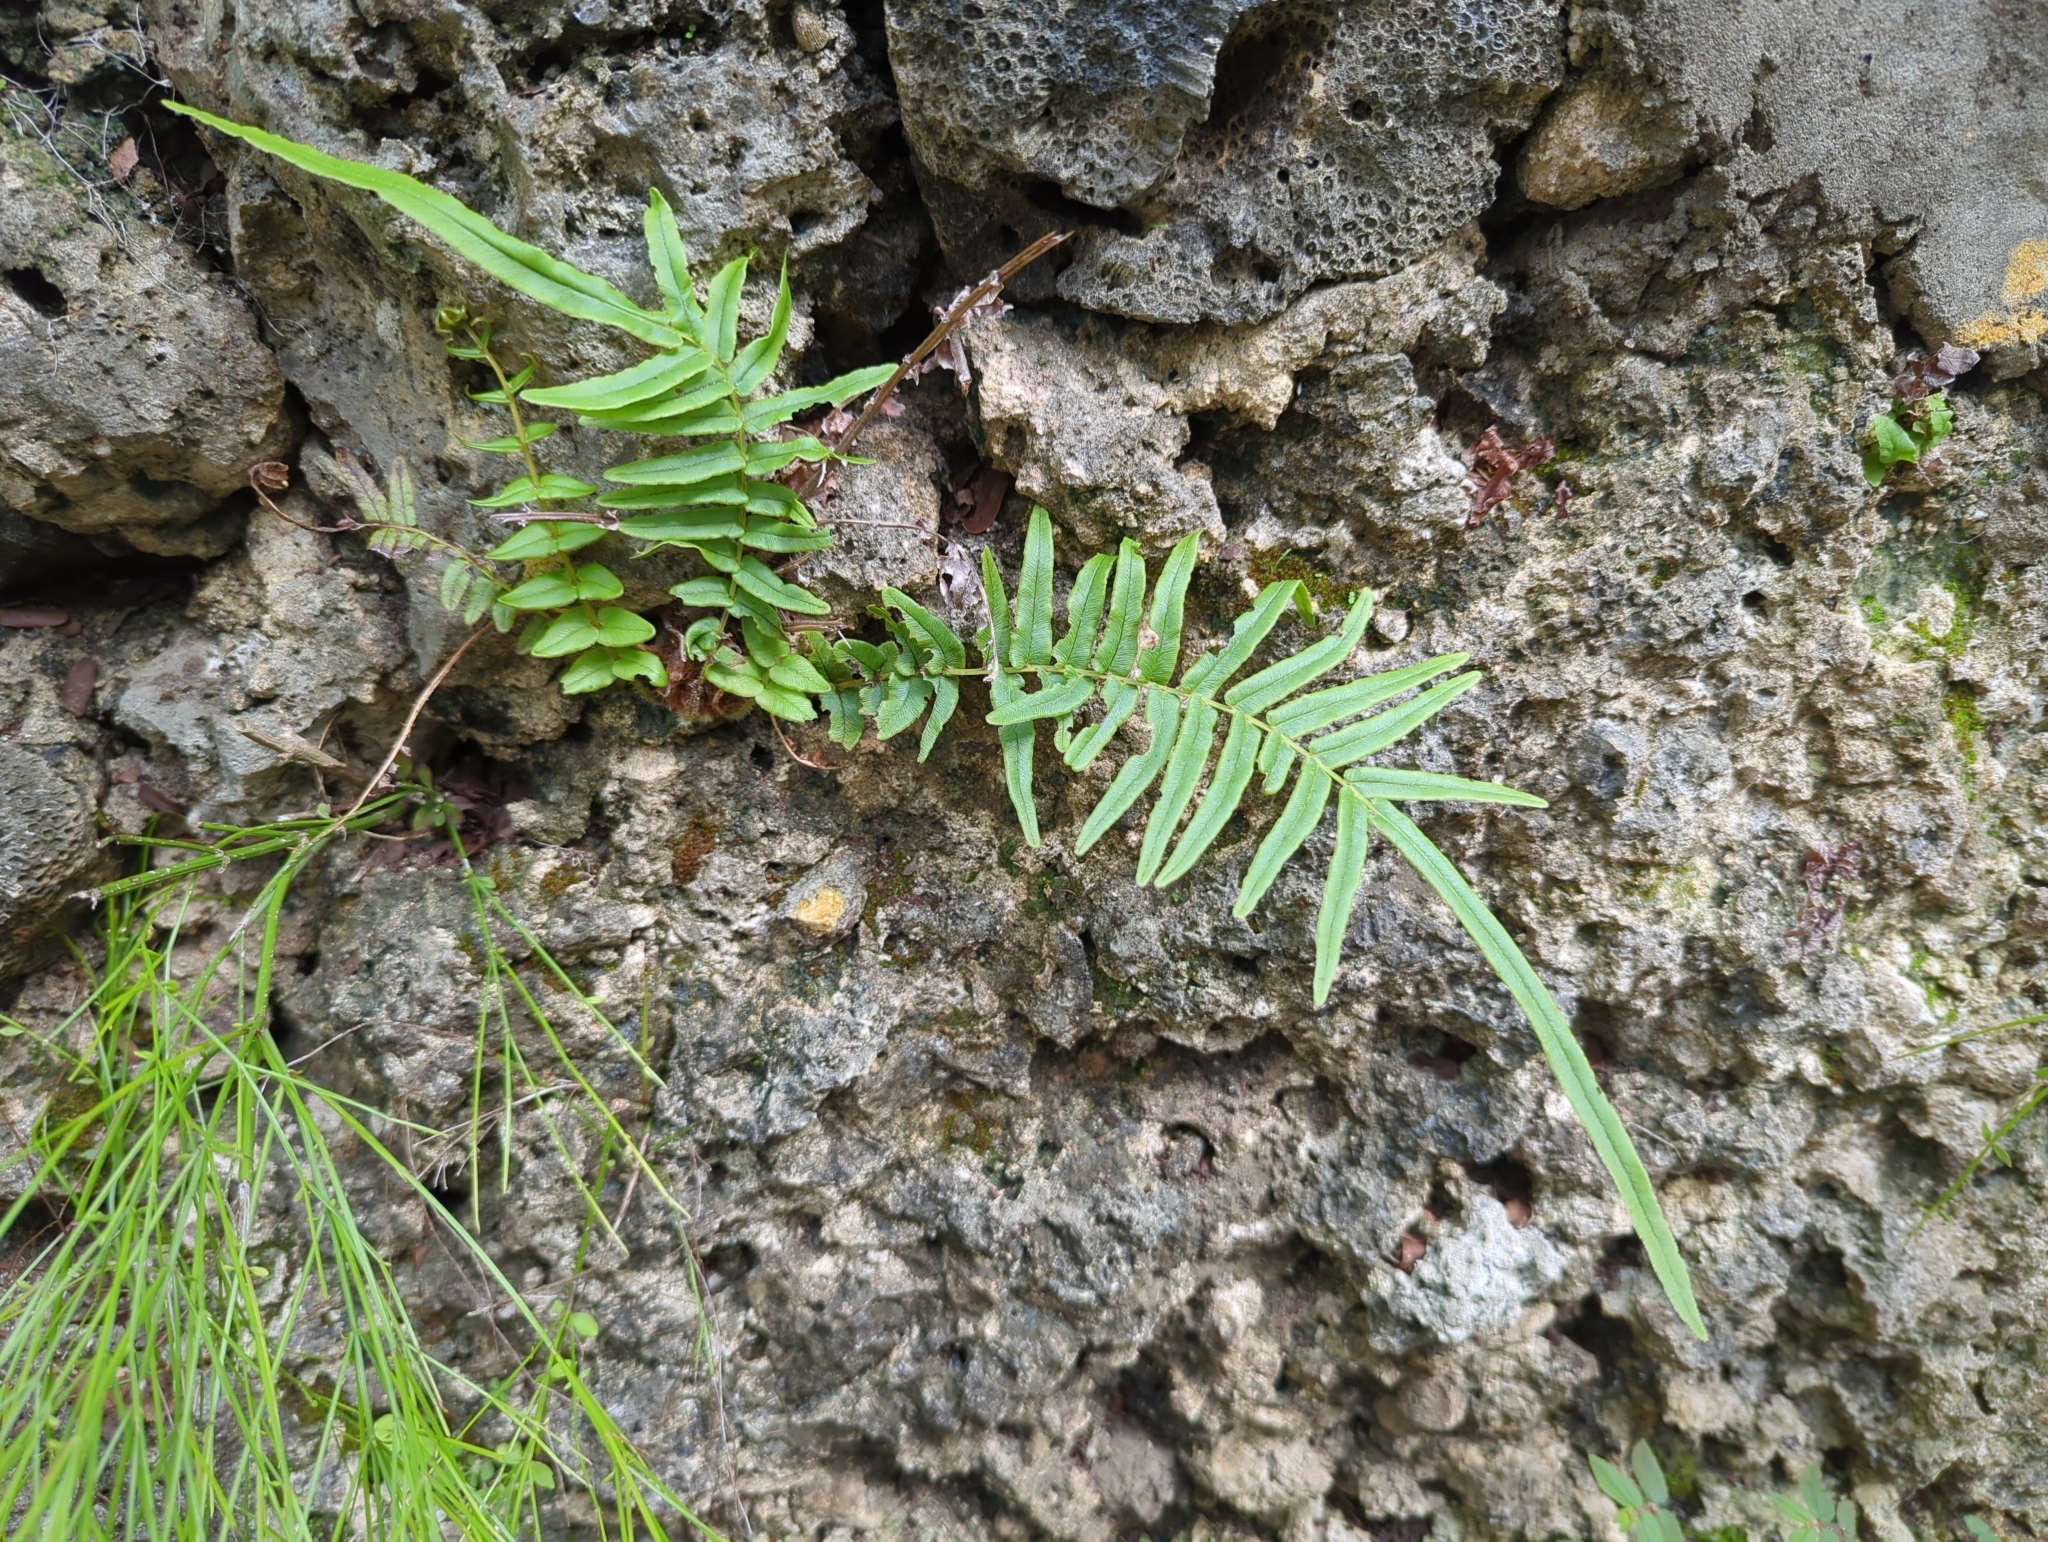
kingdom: Plantae
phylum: Tracheophyta
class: Polypodiopsida
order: Polypodiales
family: Pteridaceae
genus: Pteris
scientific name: Pteris vittata
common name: Ladder brake
